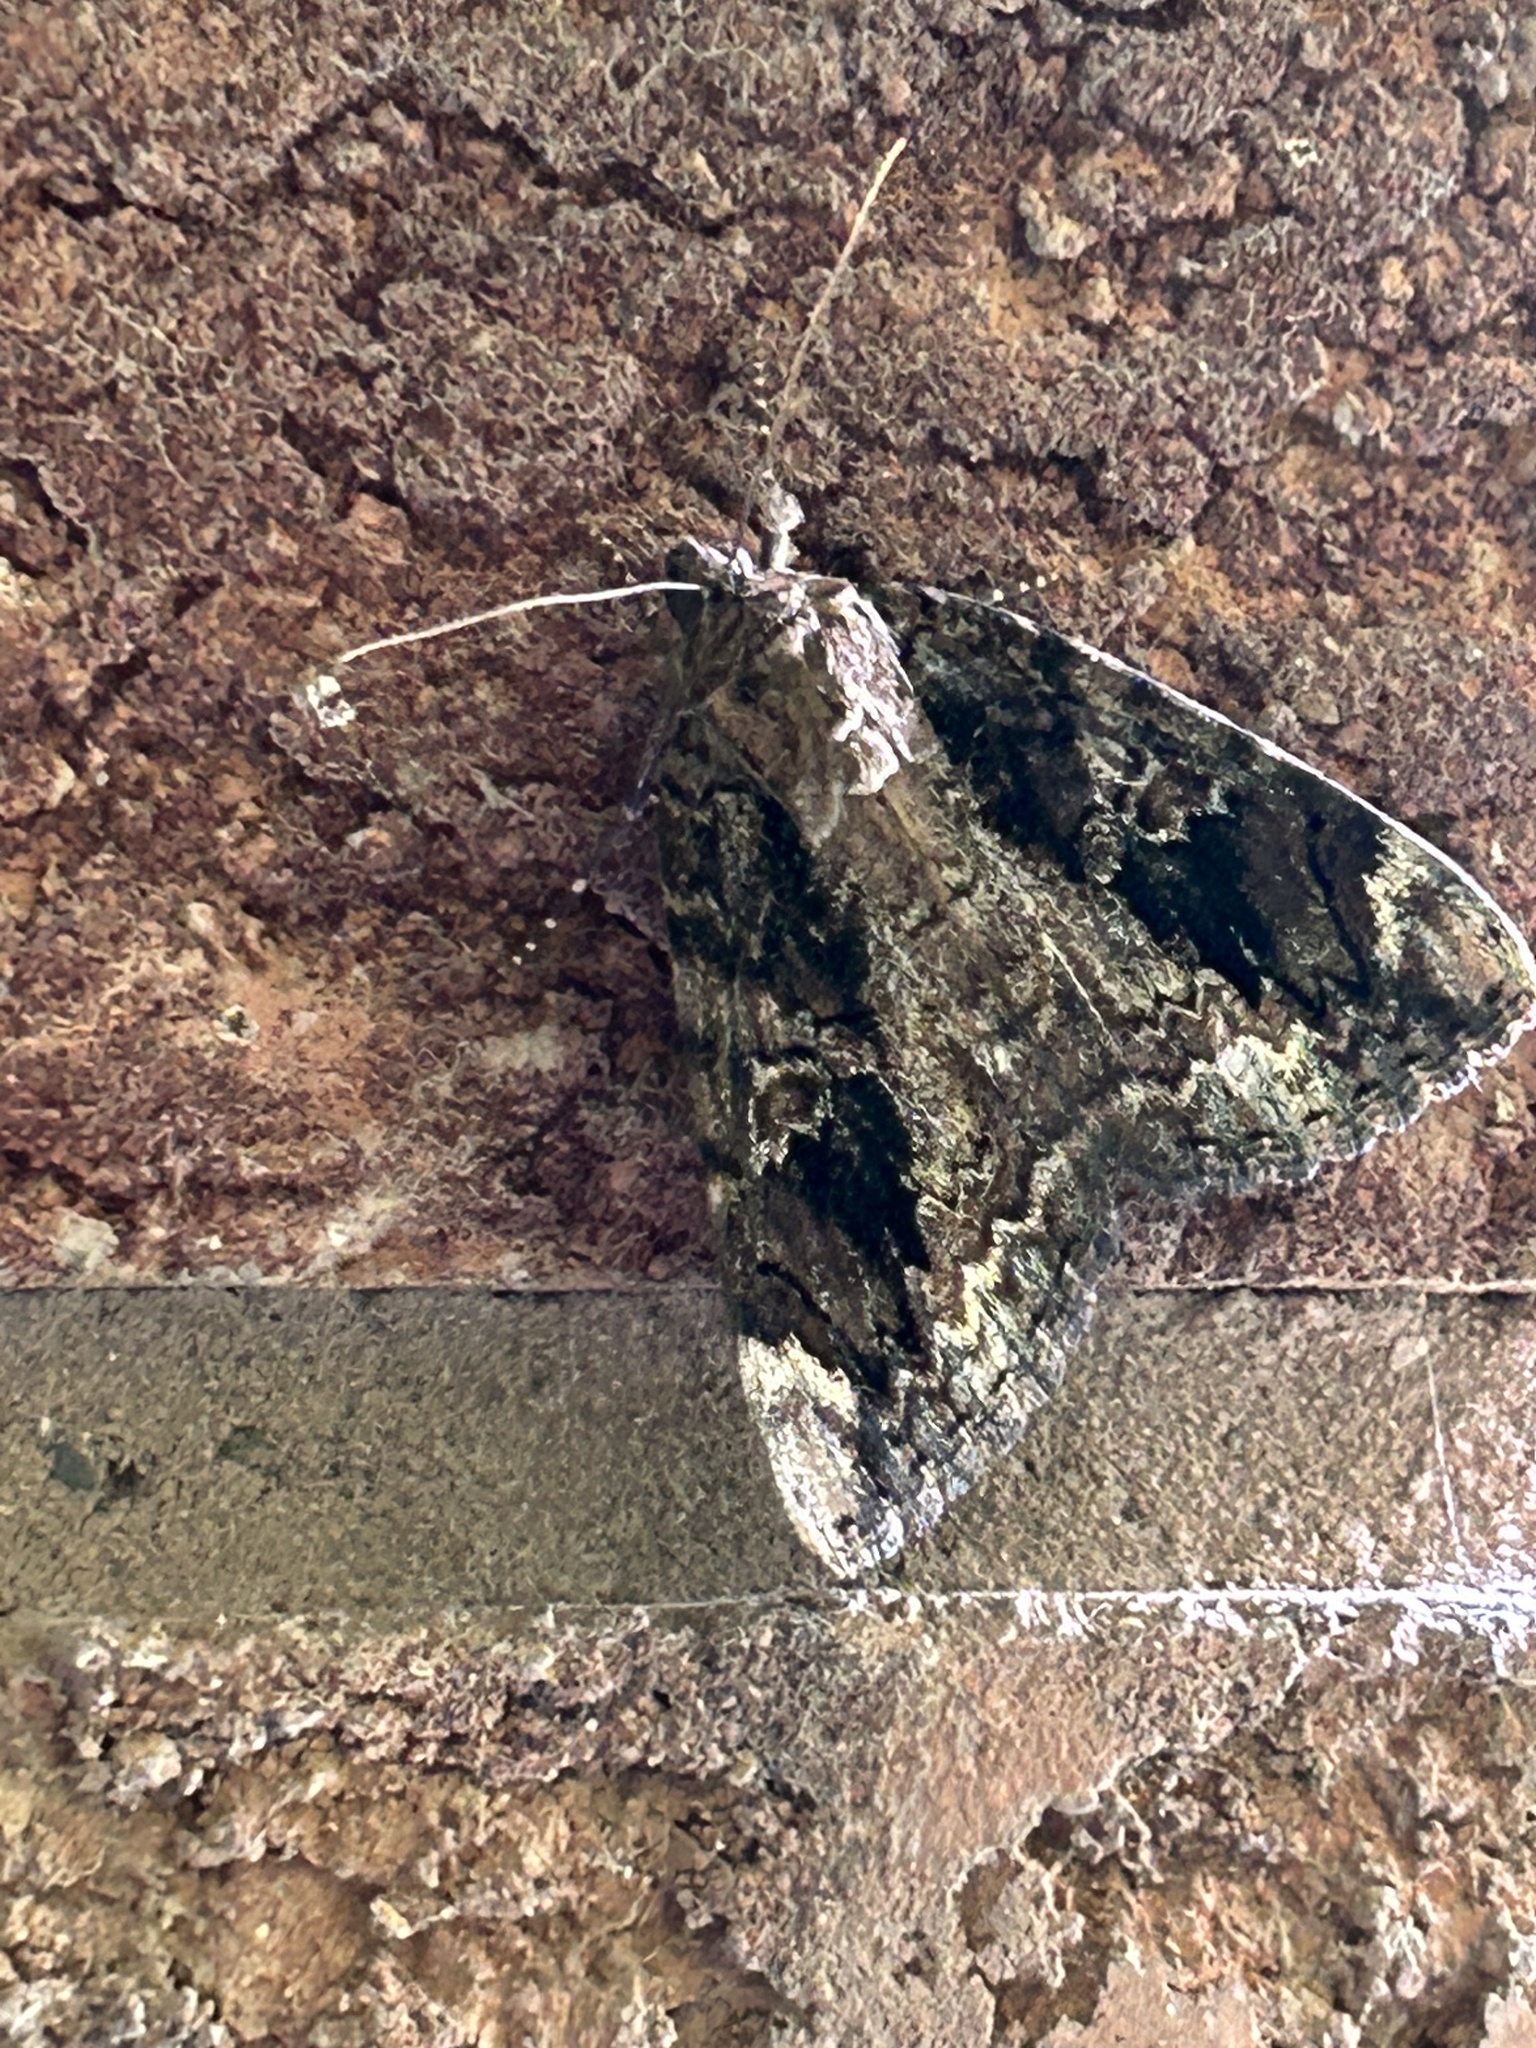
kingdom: Animalia
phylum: Arthropoda
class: Insecta
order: Lepidoptera
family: Erebidae
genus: Catocala
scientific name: Catocala innubens
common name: Betrothed underwing
